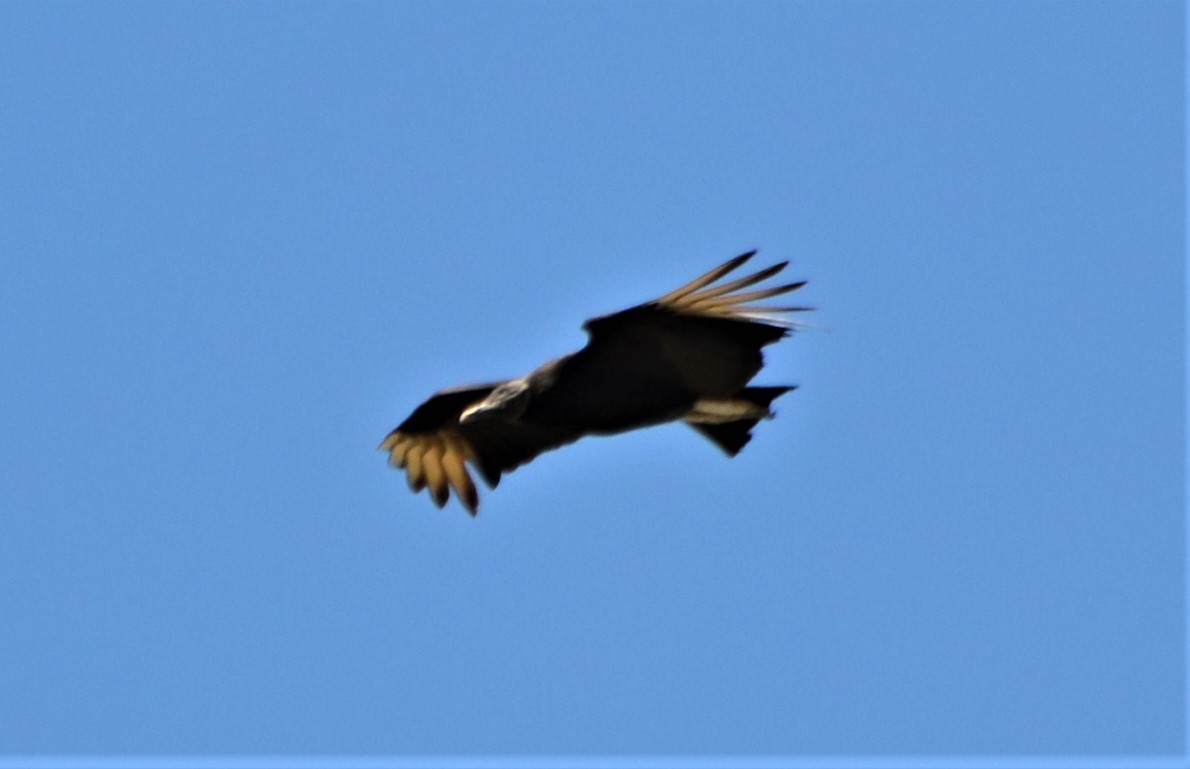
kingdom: Animalia
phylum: Chordata
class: Aves
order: Accipitriformes
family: Cathartidae
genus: Coragyps
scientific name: Coragyps atratus
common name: Black vulture
